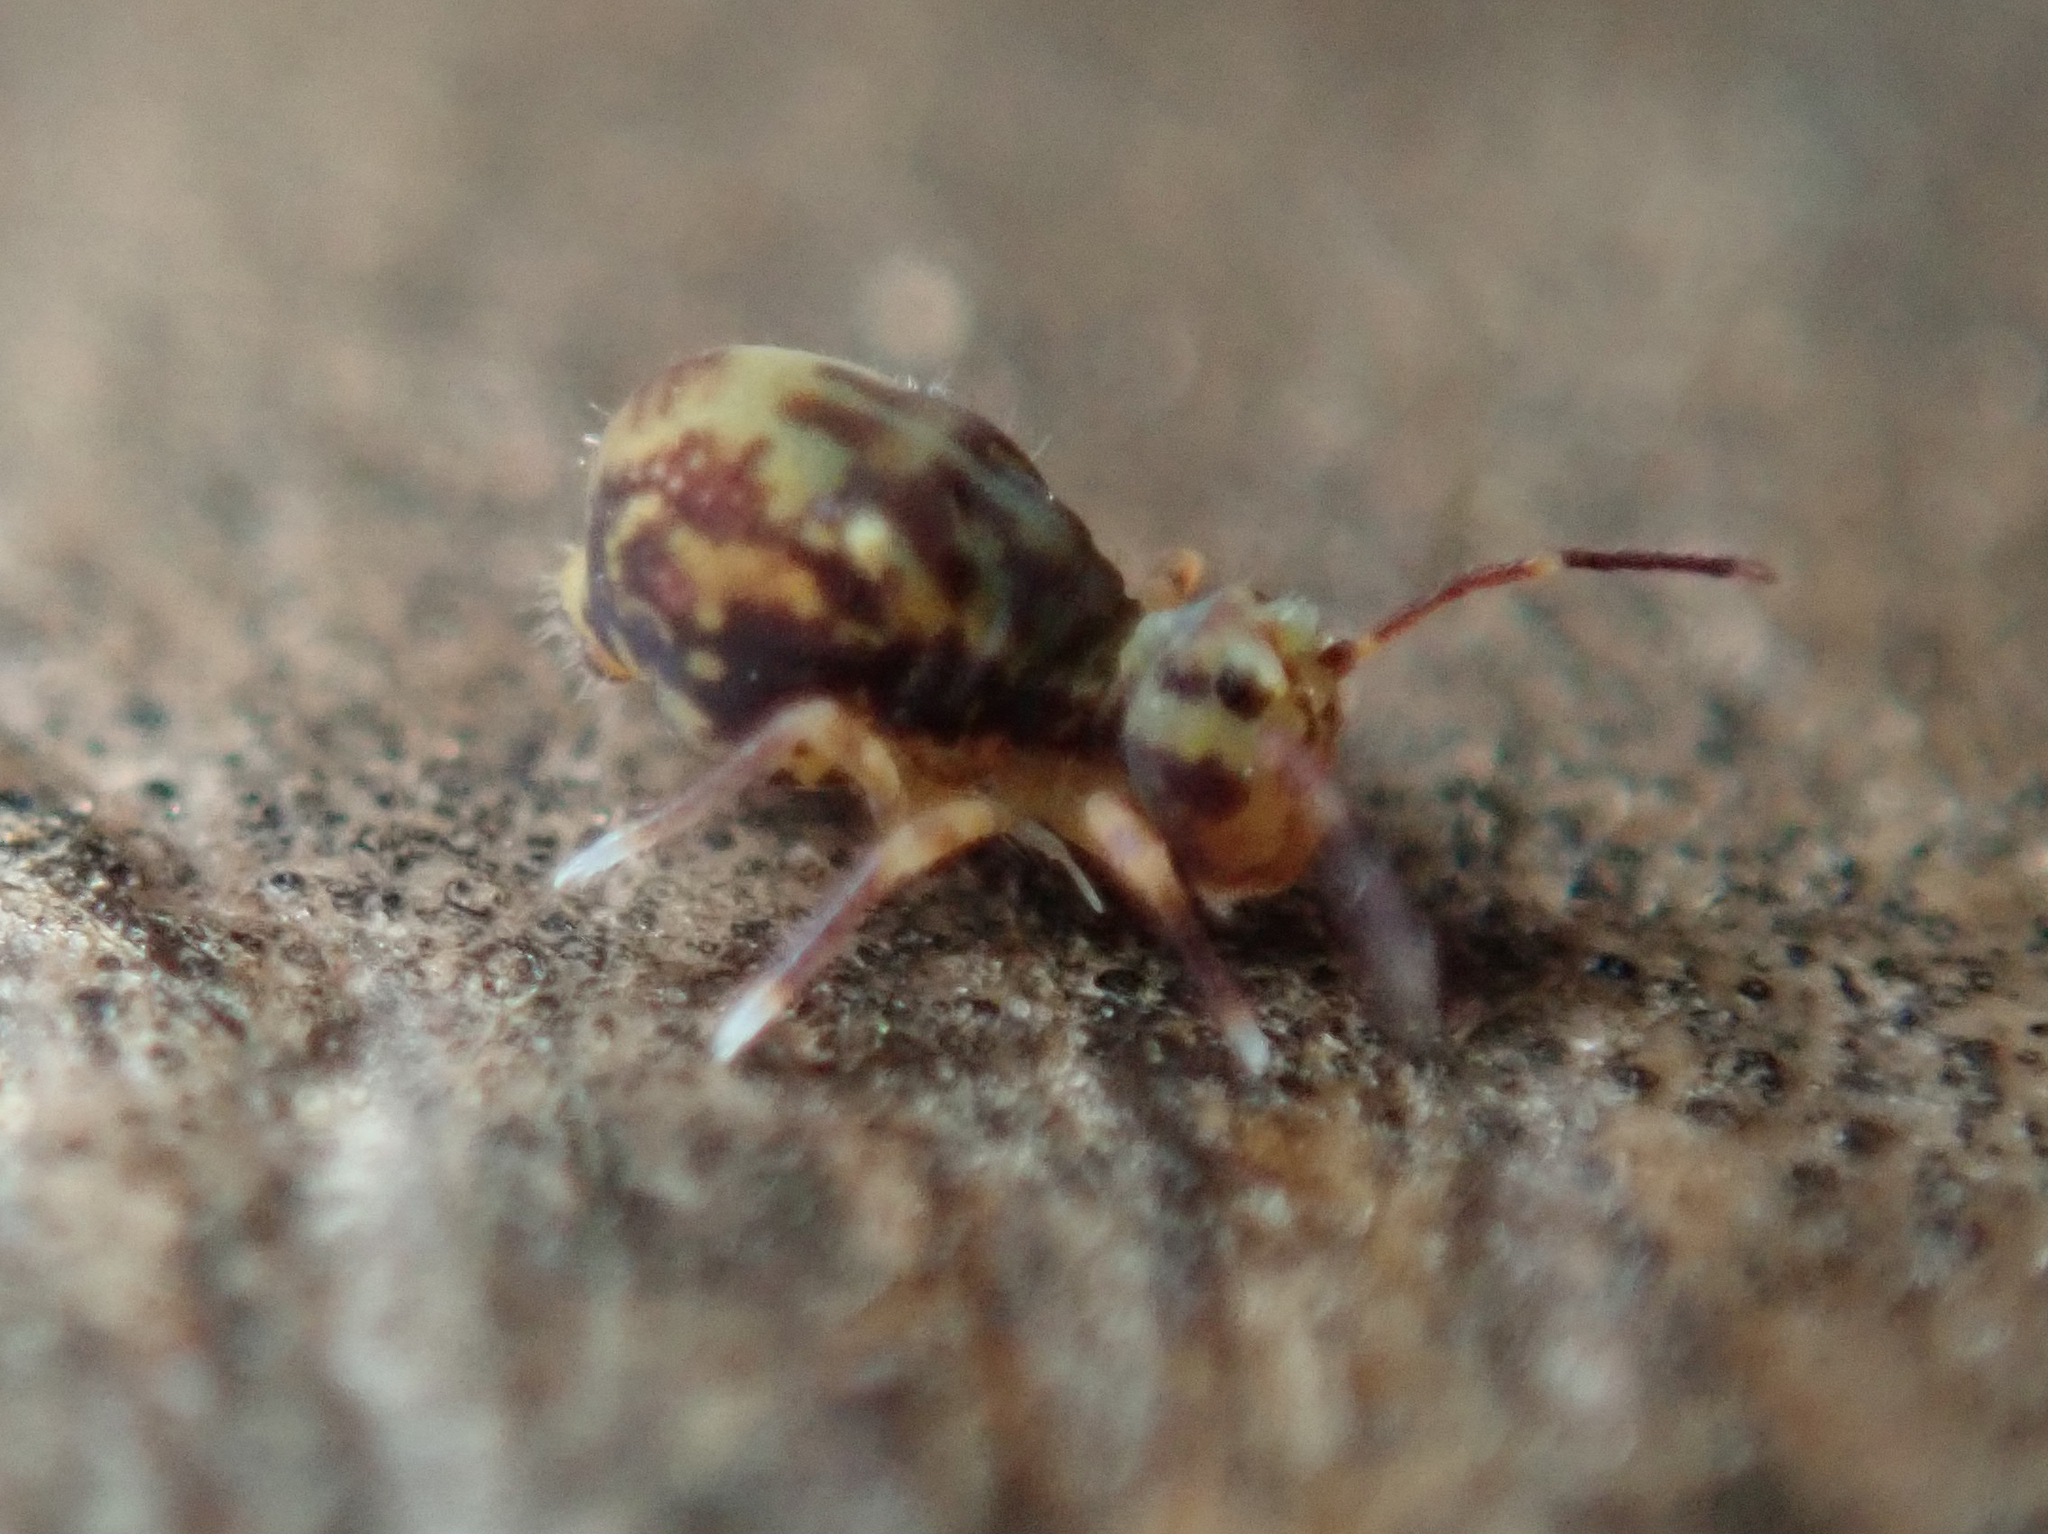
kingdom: Animalia
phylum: Arthropoda
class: Collembola
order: Symphypleona
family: Dicyrtomidae
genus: Dicyrtomina
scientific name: Dicyrtomina saundersi
